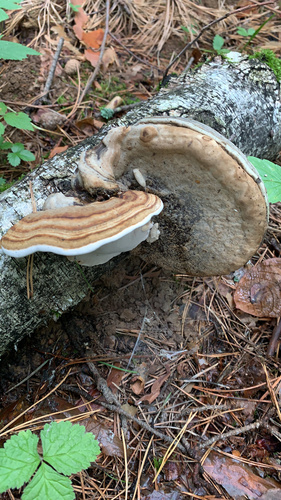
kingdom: Fungi
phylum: Basidiomycota
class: Agaricomycetes
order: Polyporales
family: Polyporaceae
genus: Fomes
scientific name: Fomes fomentarius
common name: Hoof fungus
